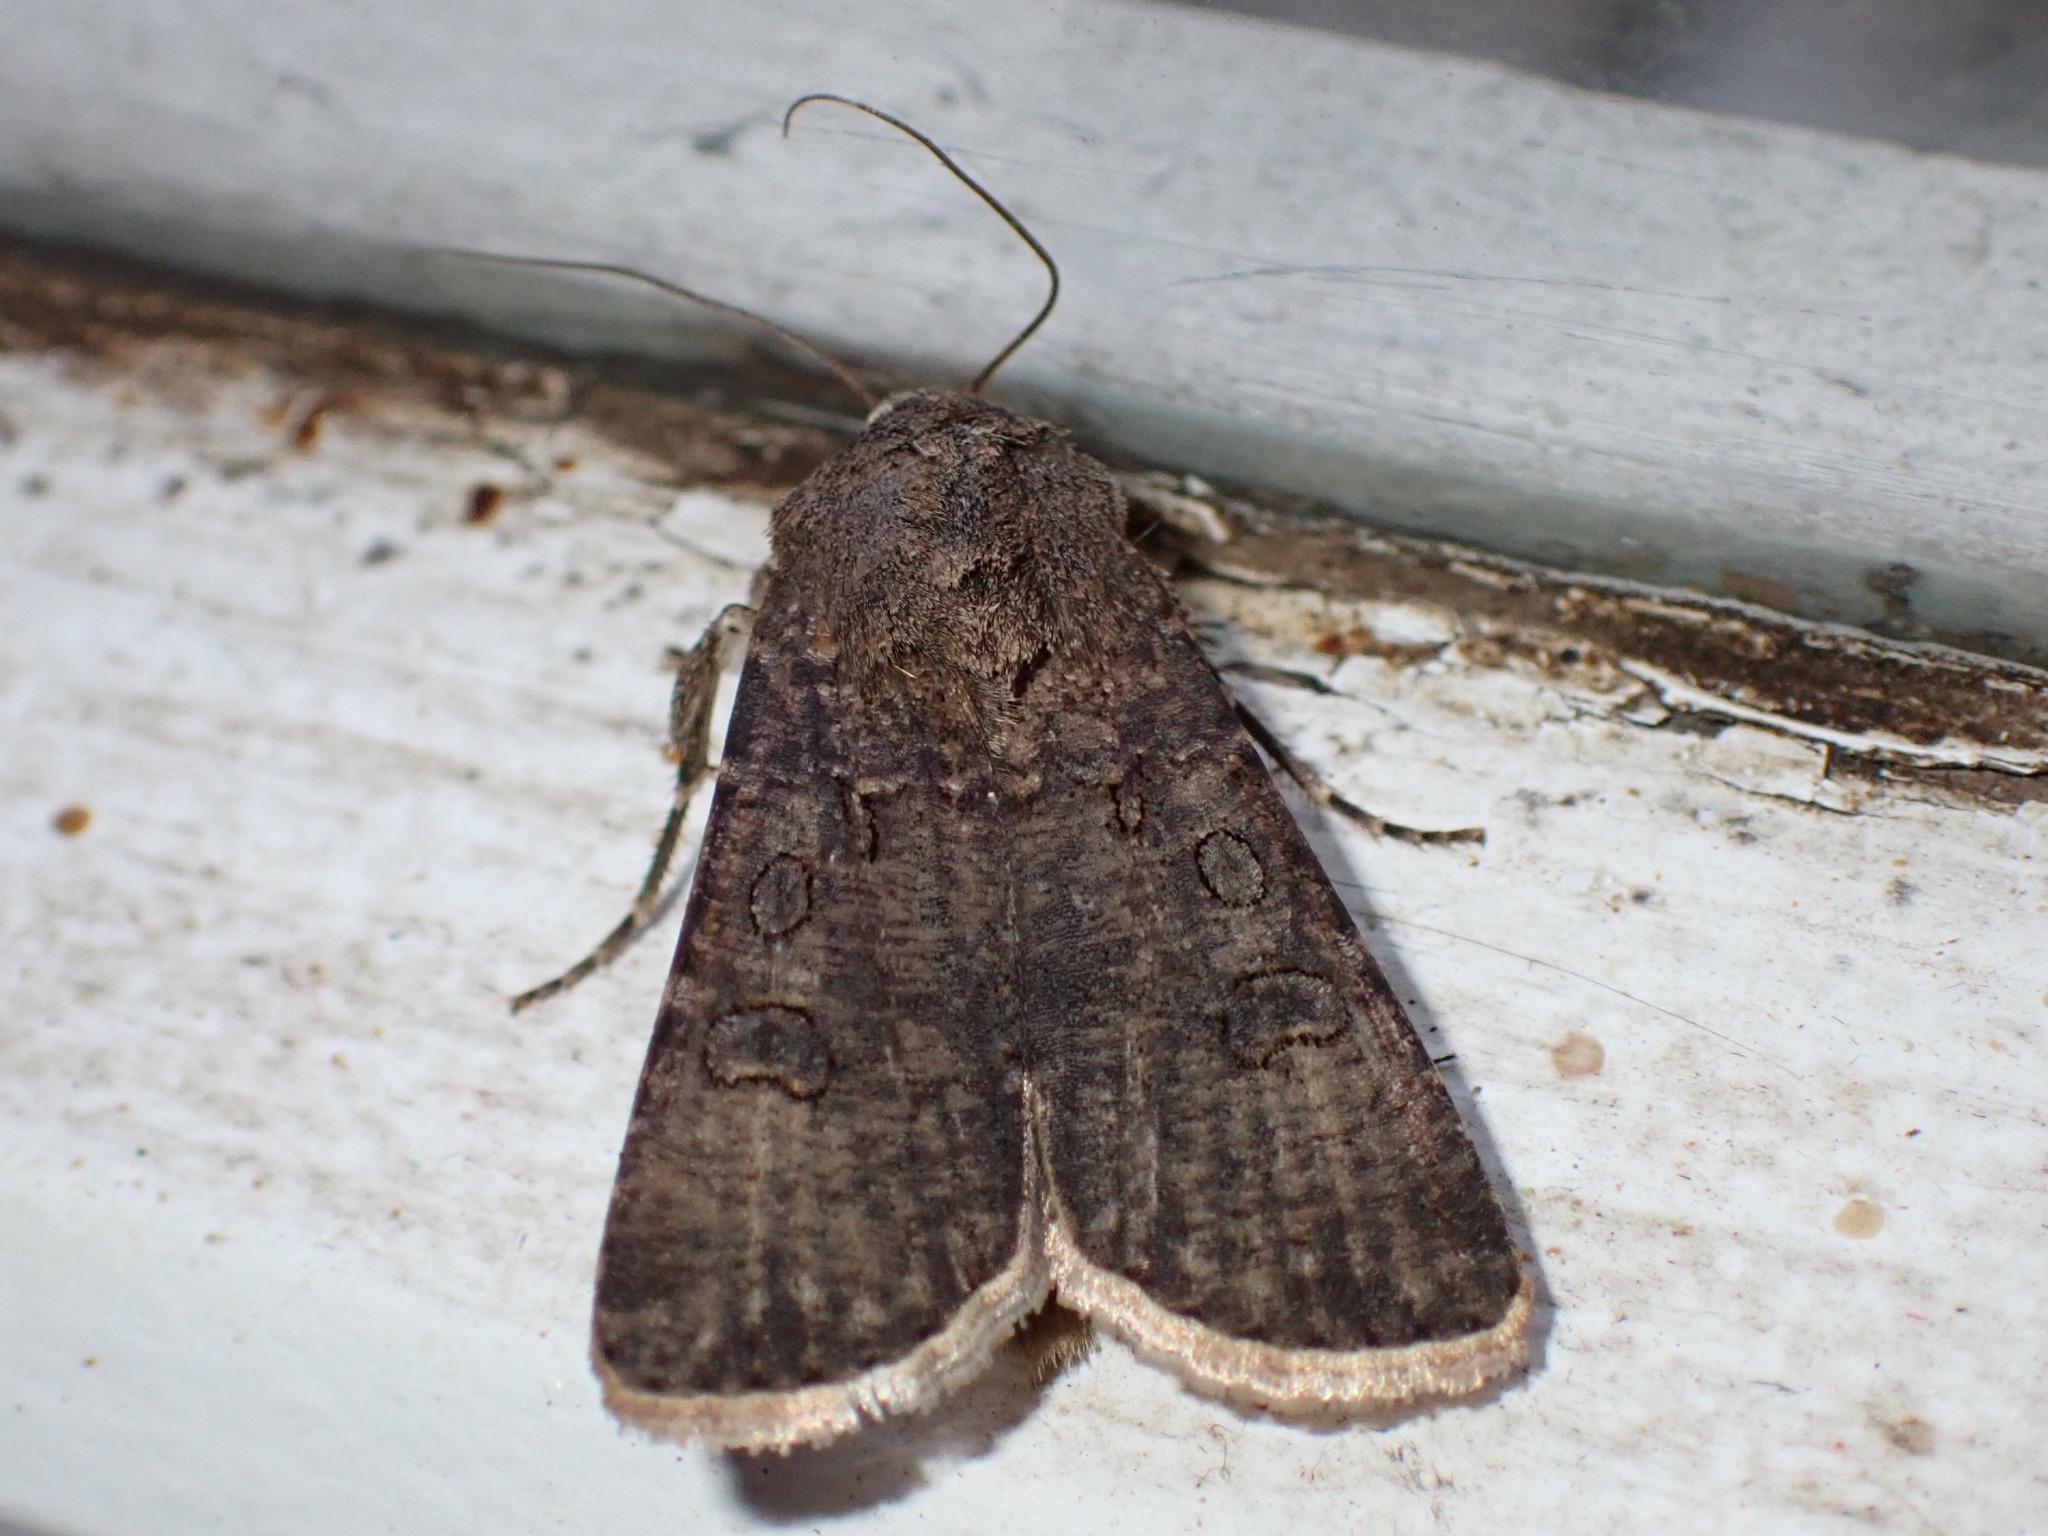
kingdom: Animalia
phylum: Arthropoda
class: Insecta
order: Lepidoptera
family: Noctuidae
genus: Agrotis
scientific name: Agrotis segetum
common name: Turnip moth
